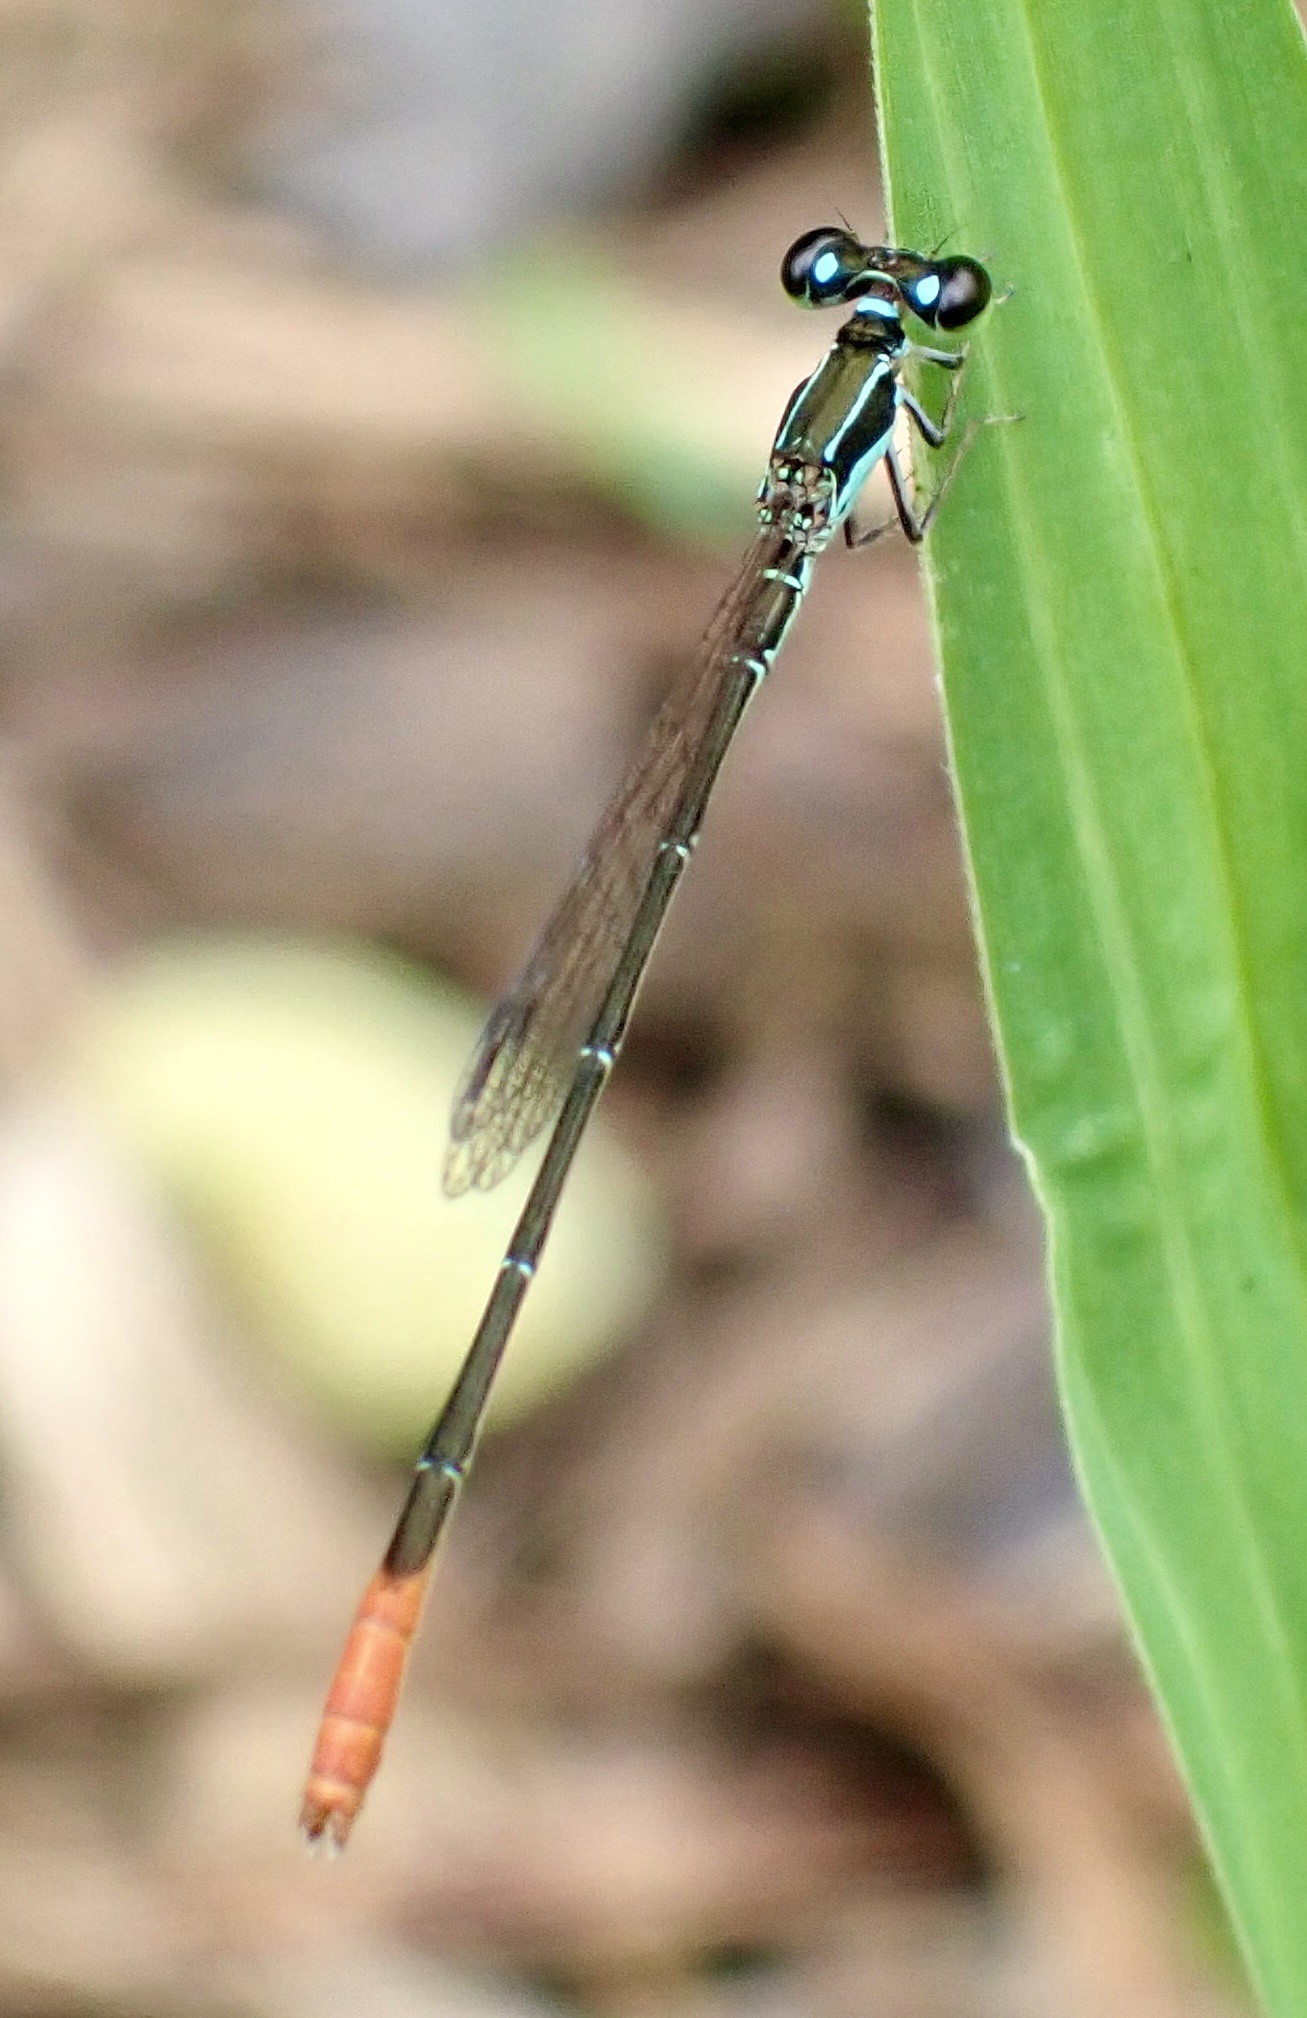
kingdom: Animalia
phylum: Arthropoda
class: Insecta
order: Odonata
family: Coenagrionidae
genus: Agriocnemis
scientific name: Agriocnemis femina
